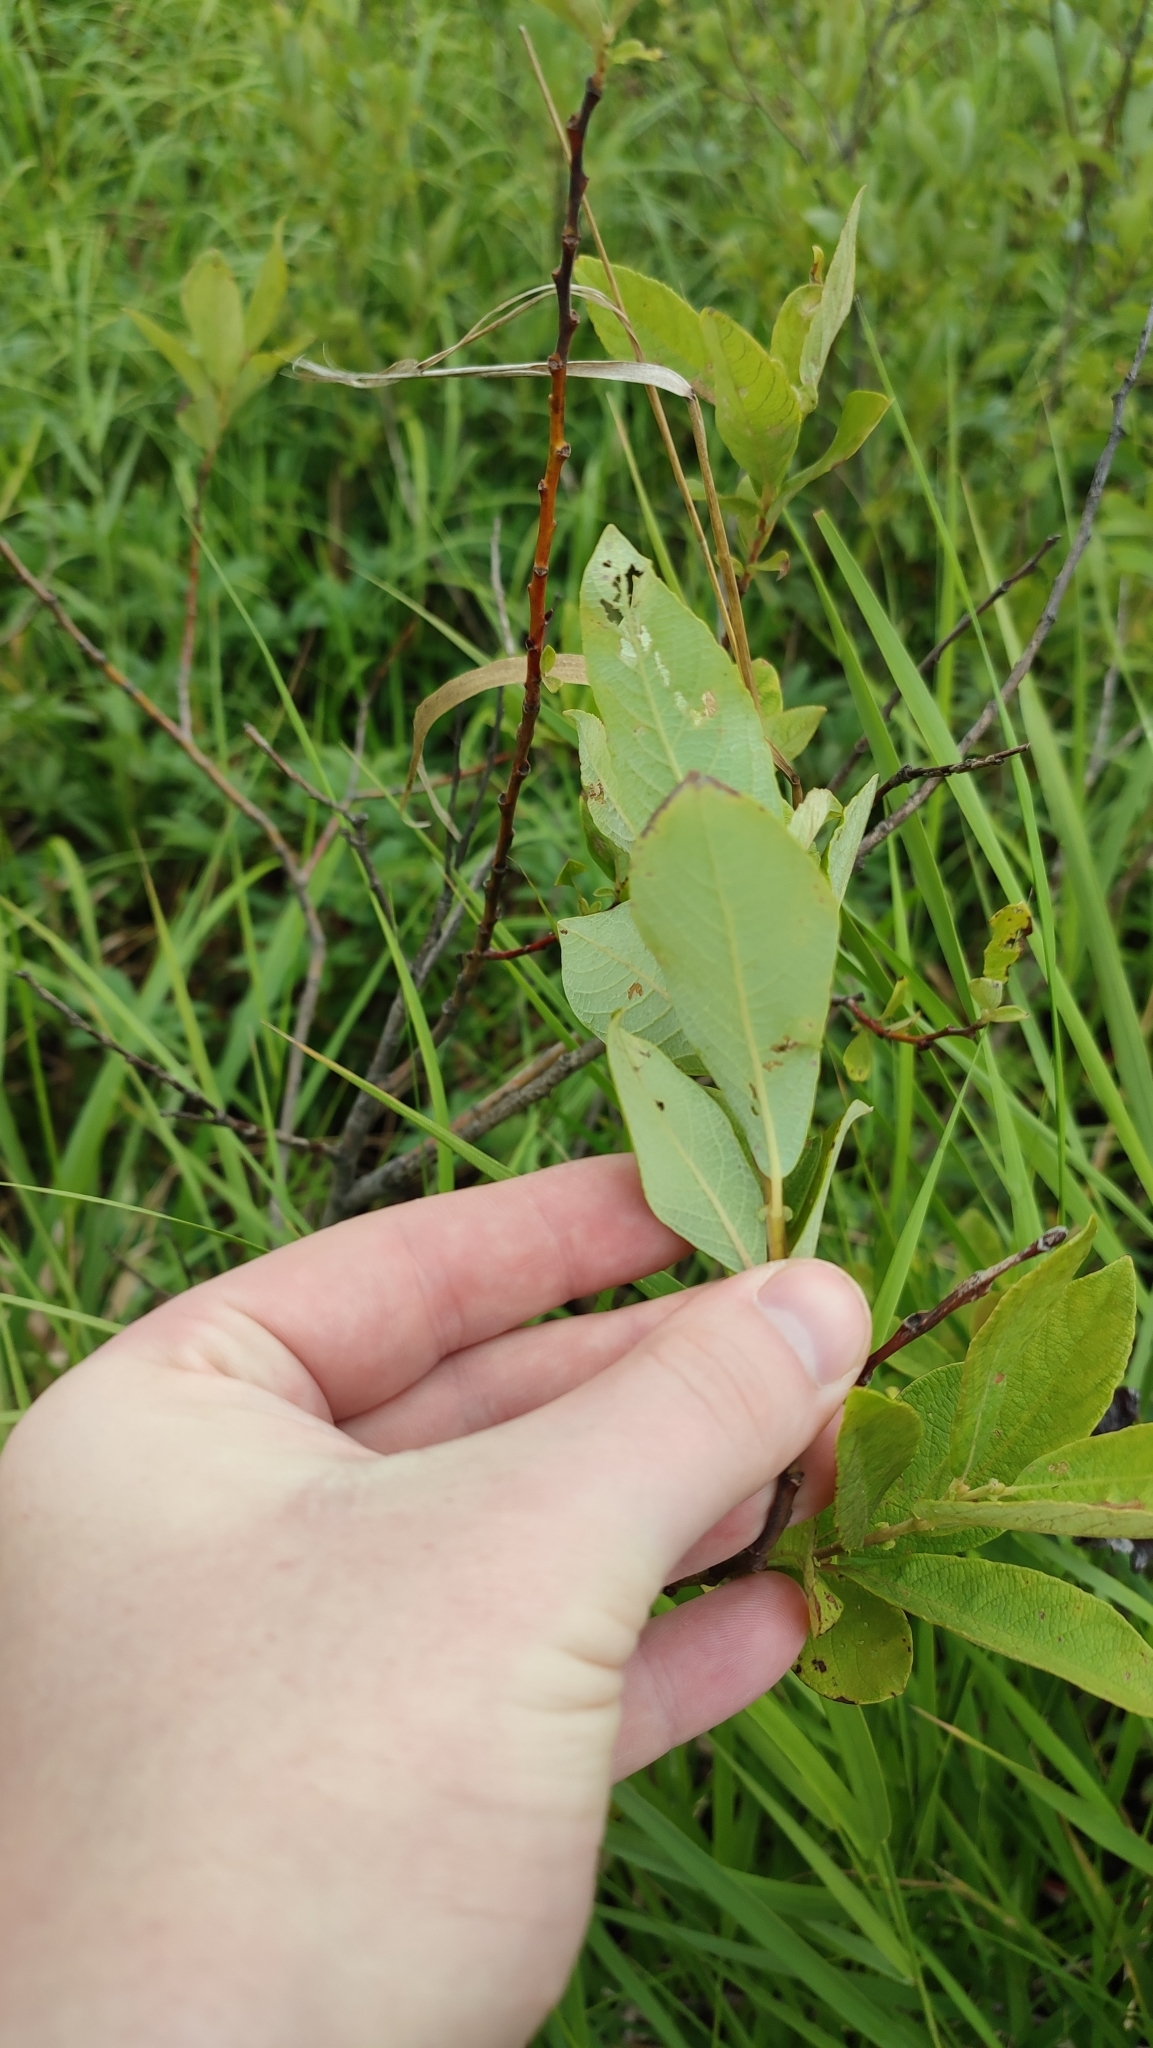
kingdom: Plantae
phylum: Tracheophyta
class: Magnoliopsida
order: Malpighiales
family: Salicaceae
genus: Salix
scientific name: Salix cinerea
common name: Common sallow
